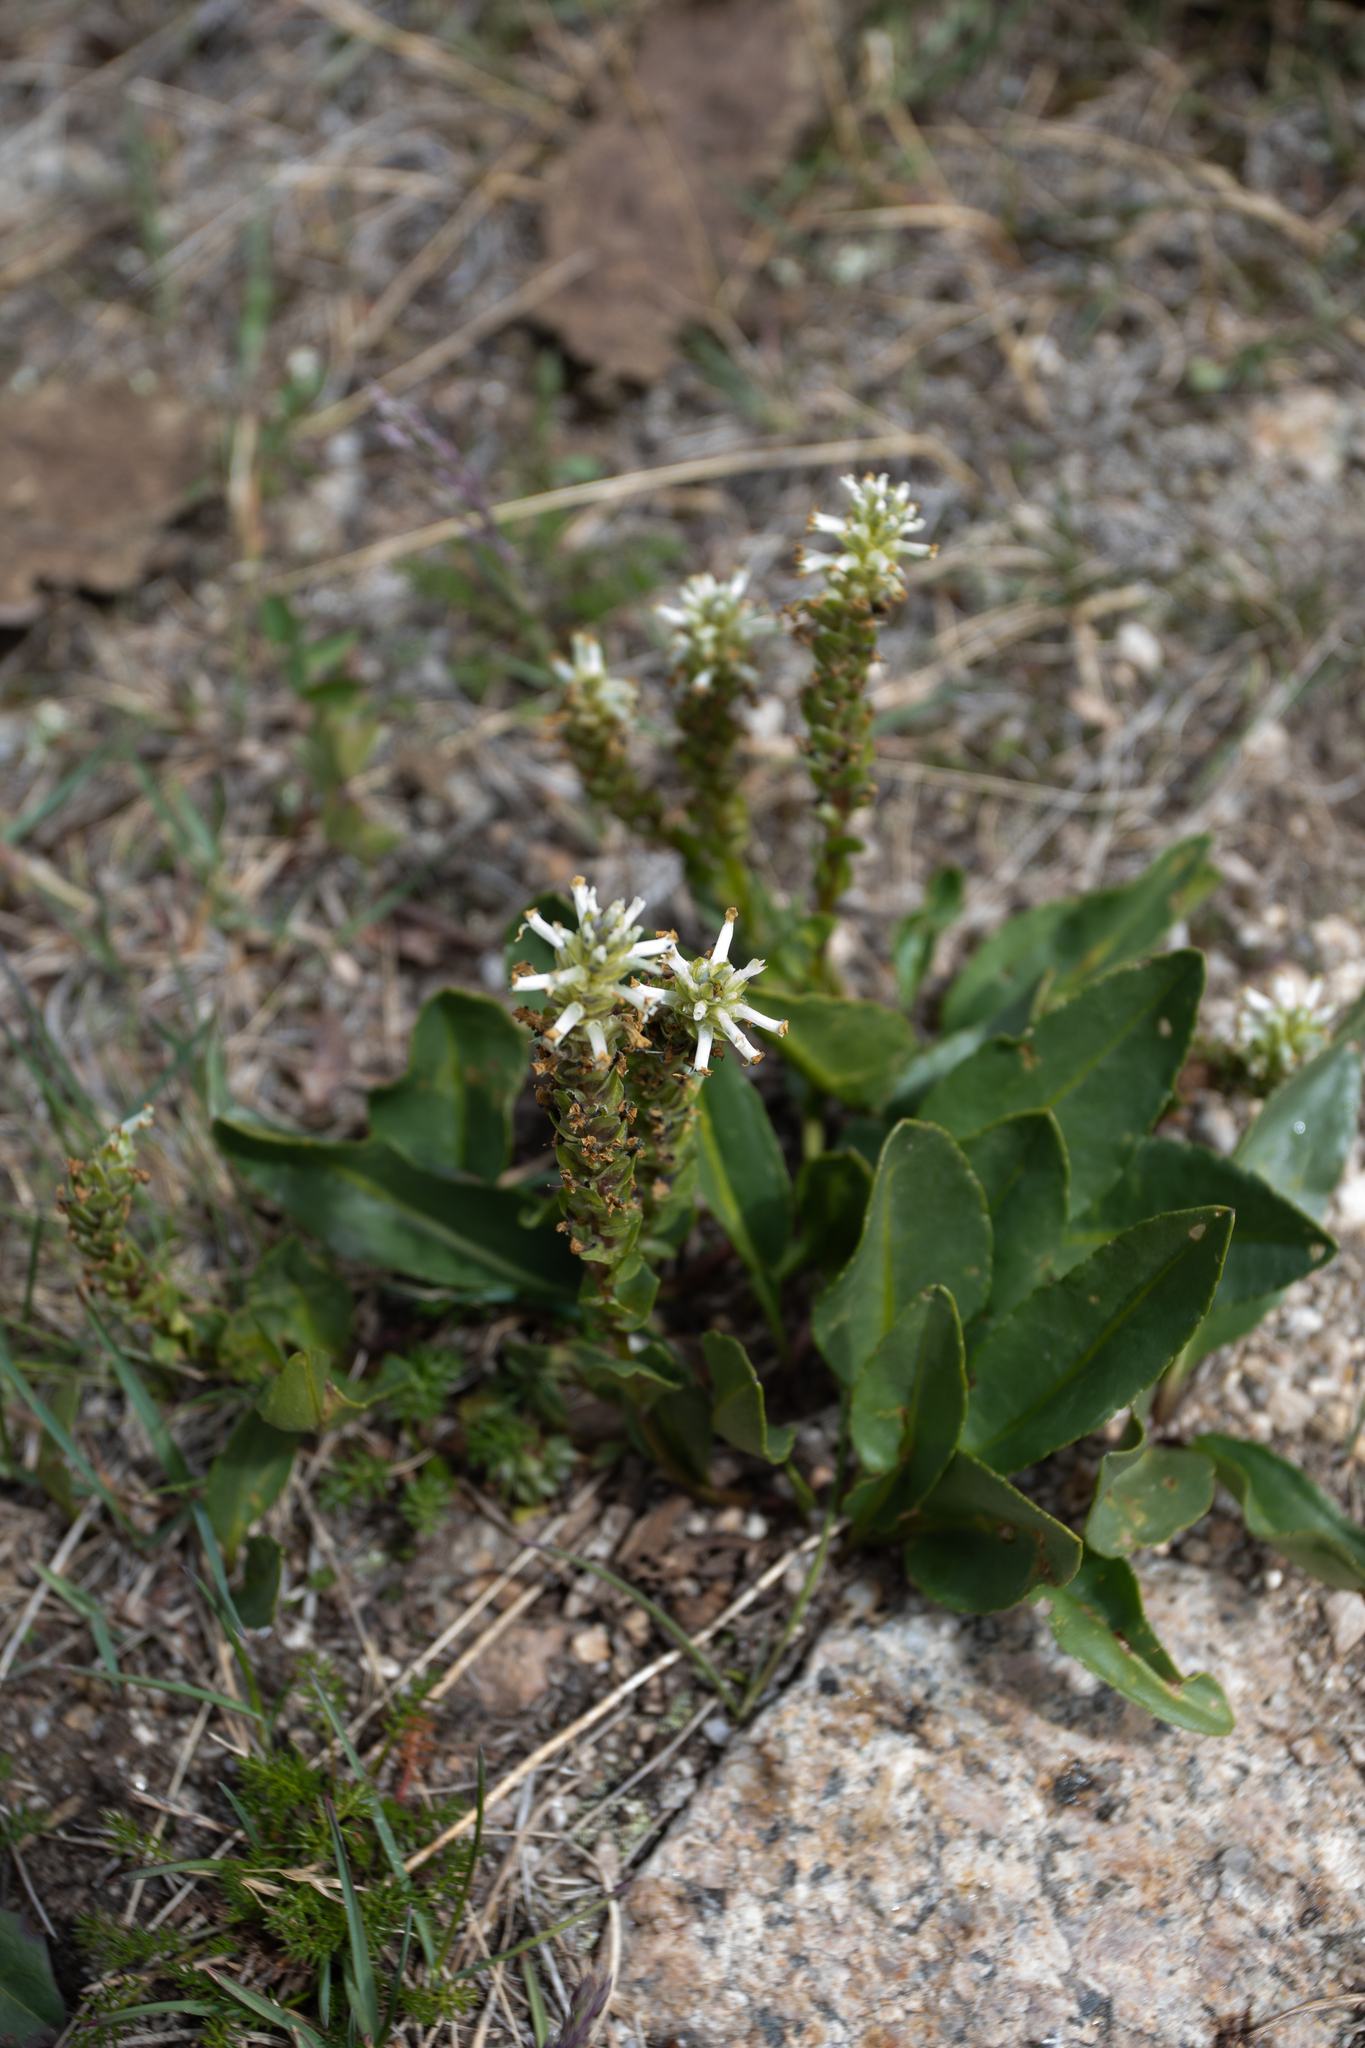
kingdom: Plantae
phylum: Tracheophyta
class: Magnoliopsida
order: Lamiales
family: Plantaginaceae
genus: Lagotis
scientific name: Lagotis integrifolia
